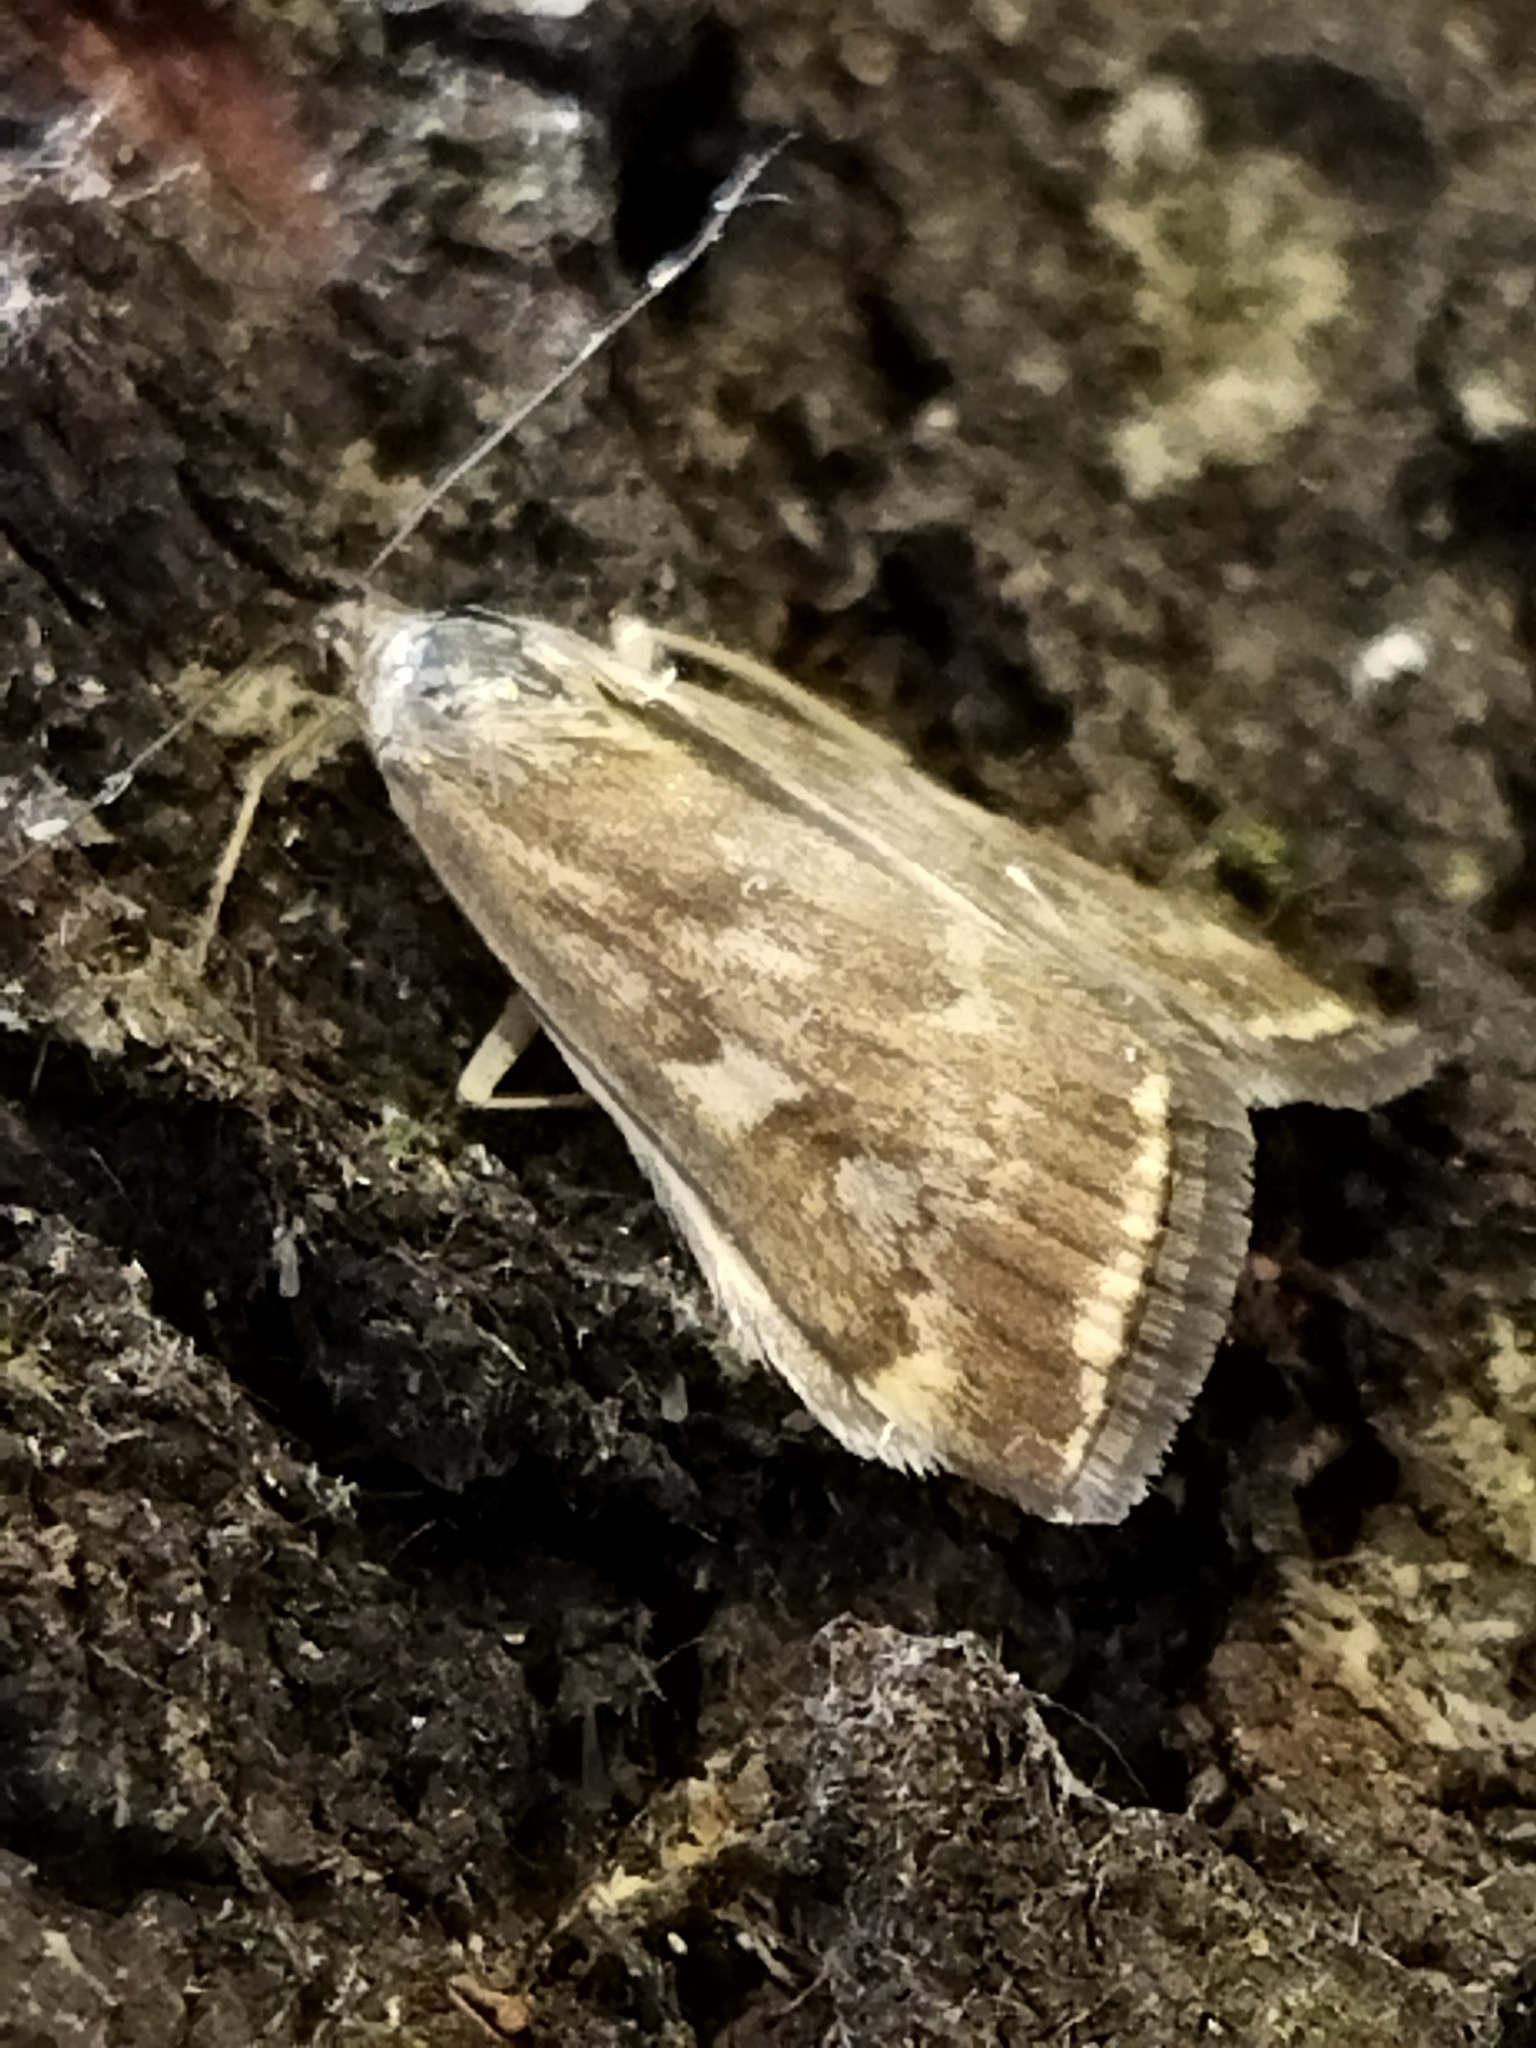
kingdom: Animalia
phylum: Arthropoda
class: Insecta
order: Lepidoptera
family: Crambidae
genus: Loxostege
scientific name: Loxostege sticticalis
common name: Crambid moth
